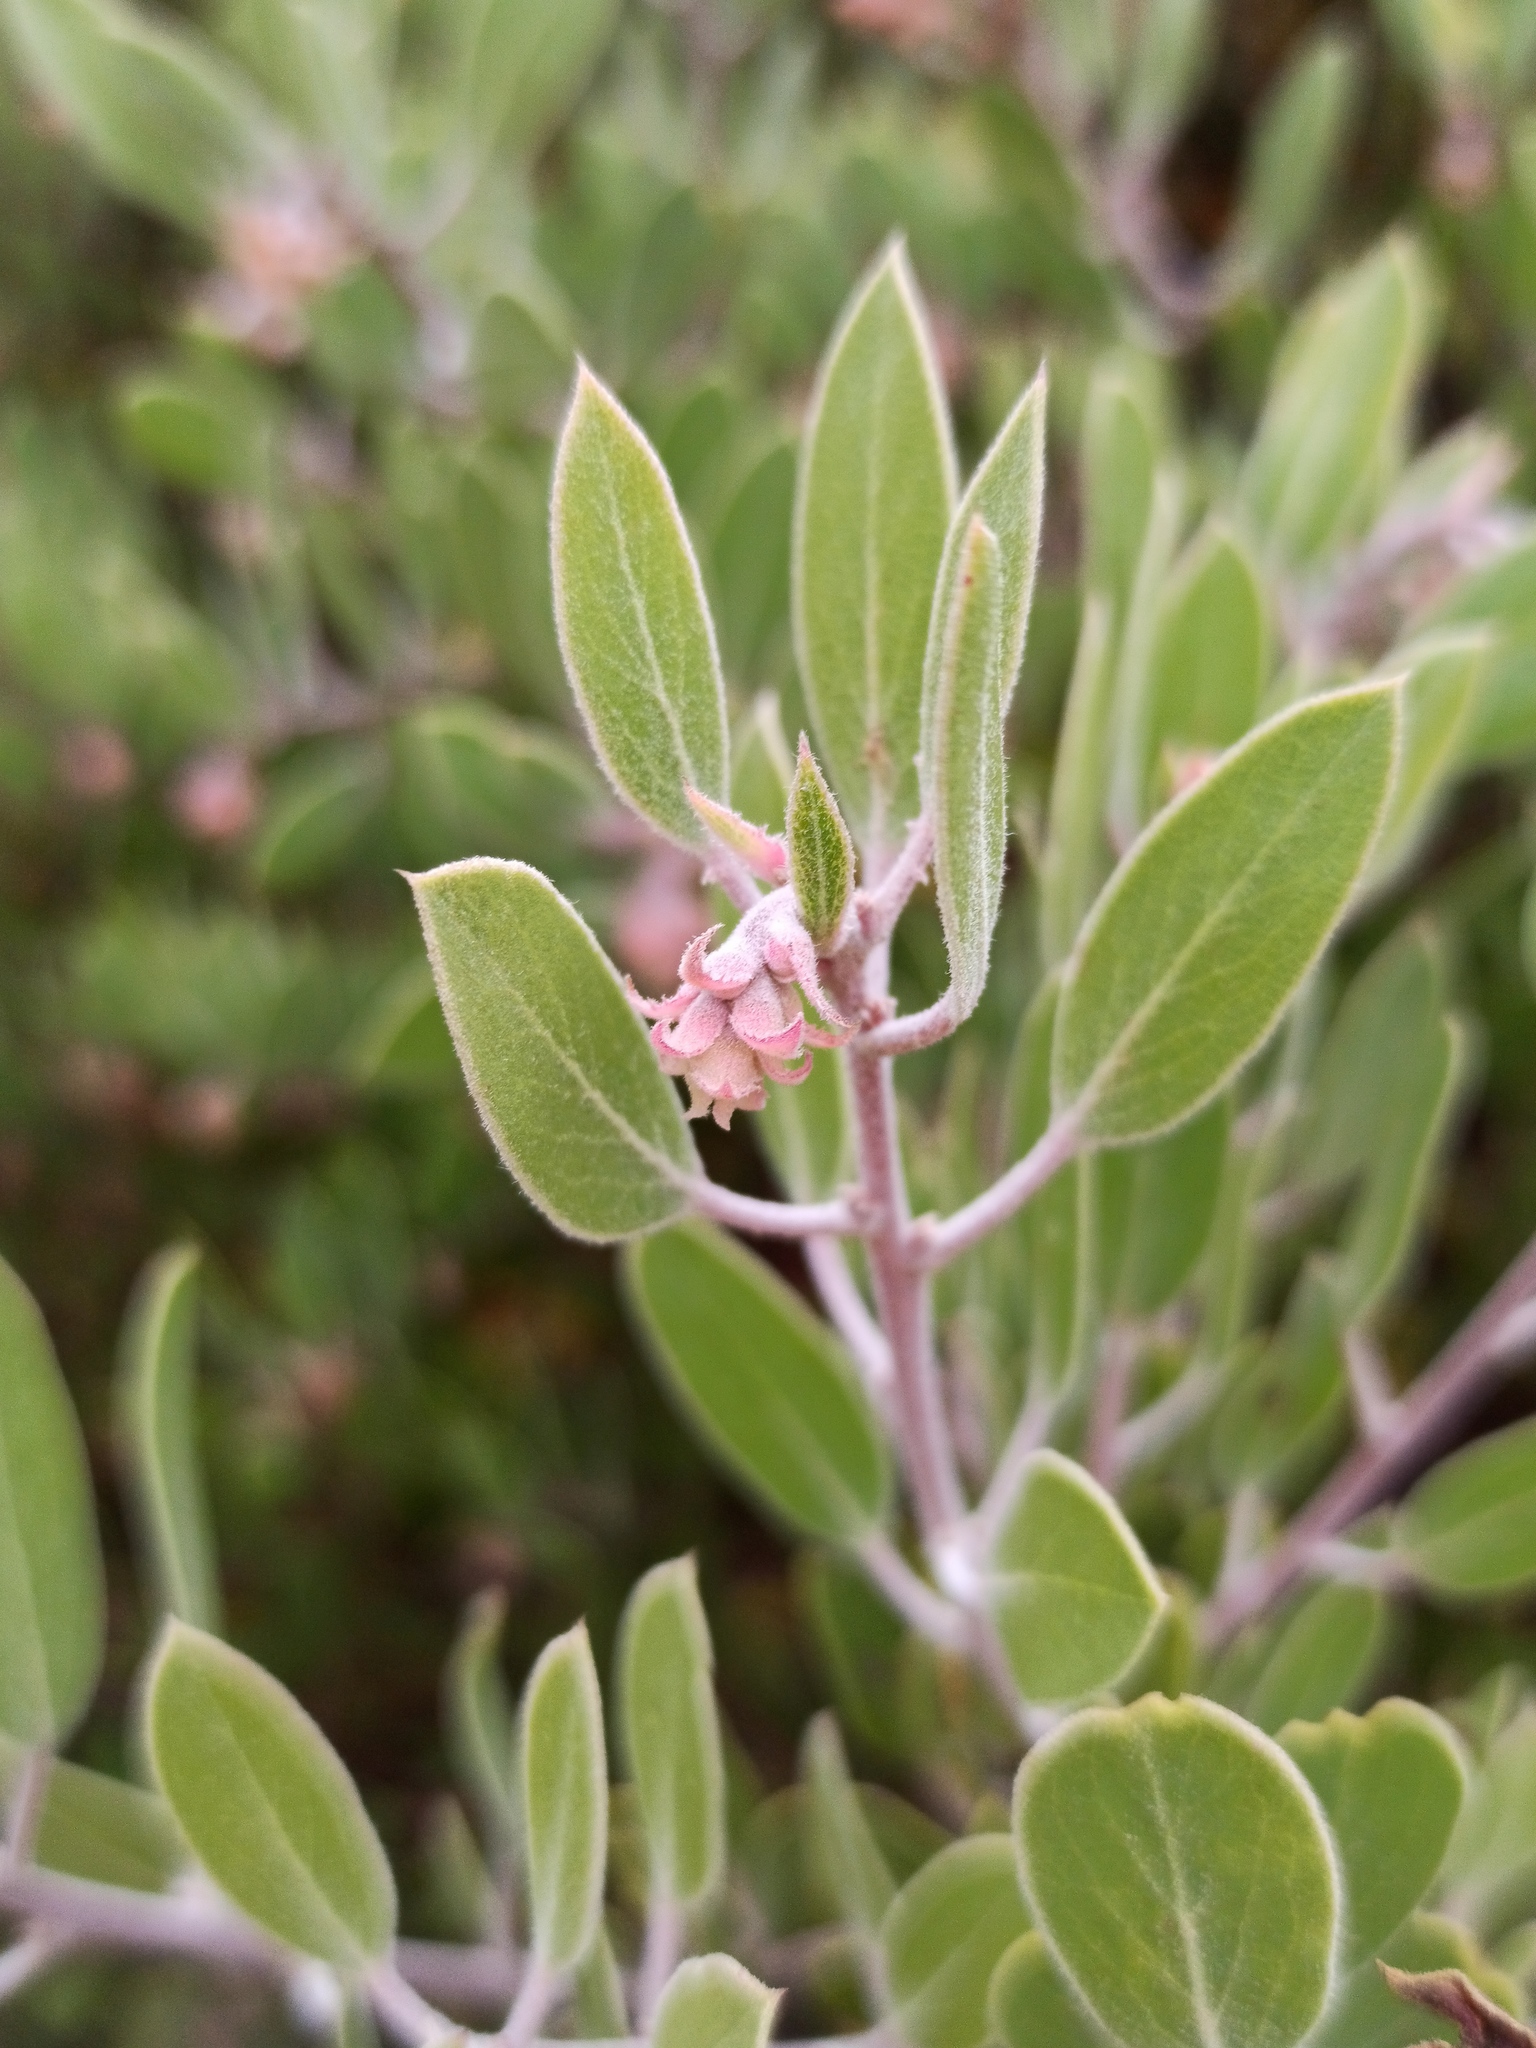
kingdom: Plantae
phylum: Tracheophyta
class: Magnoliopsida
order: Ericales
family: Ericaceae
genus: Arctostaphylos
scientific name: Arctostaphylos pungens
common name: Mexican manzanita
